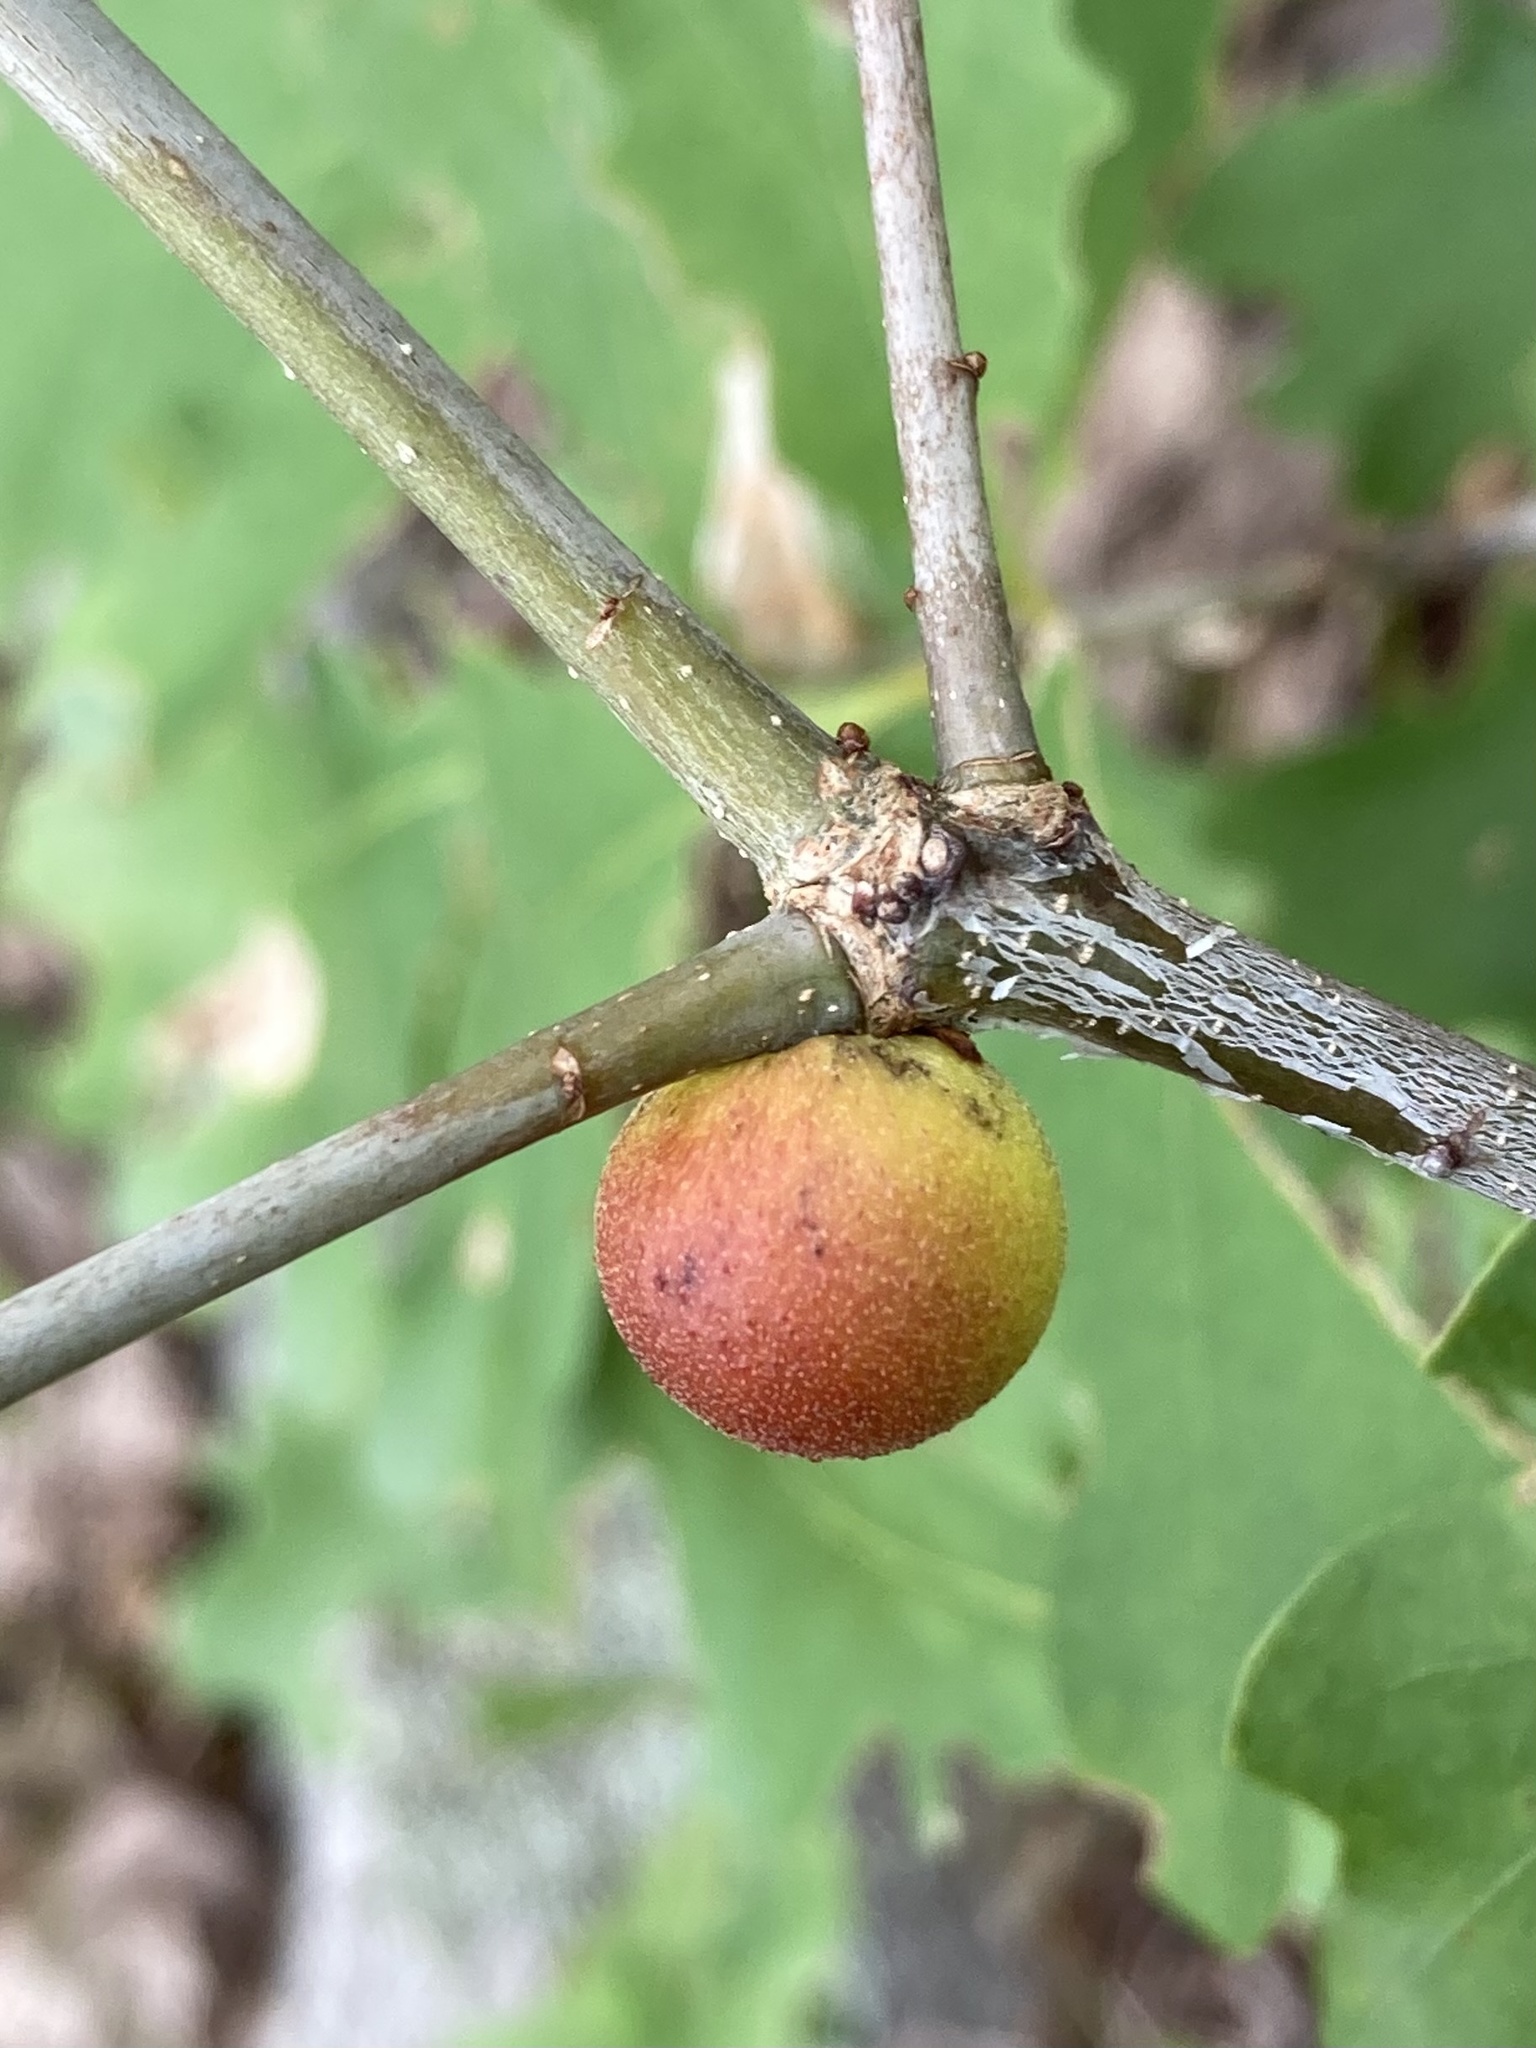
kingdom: Animalia
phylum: Arthropoda
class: Insecta
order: Hymenoptera
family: Cynipidae
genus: Disholcaspis
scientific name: Disholcaspis quercusglobulus
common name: Round bullet gall wasp
